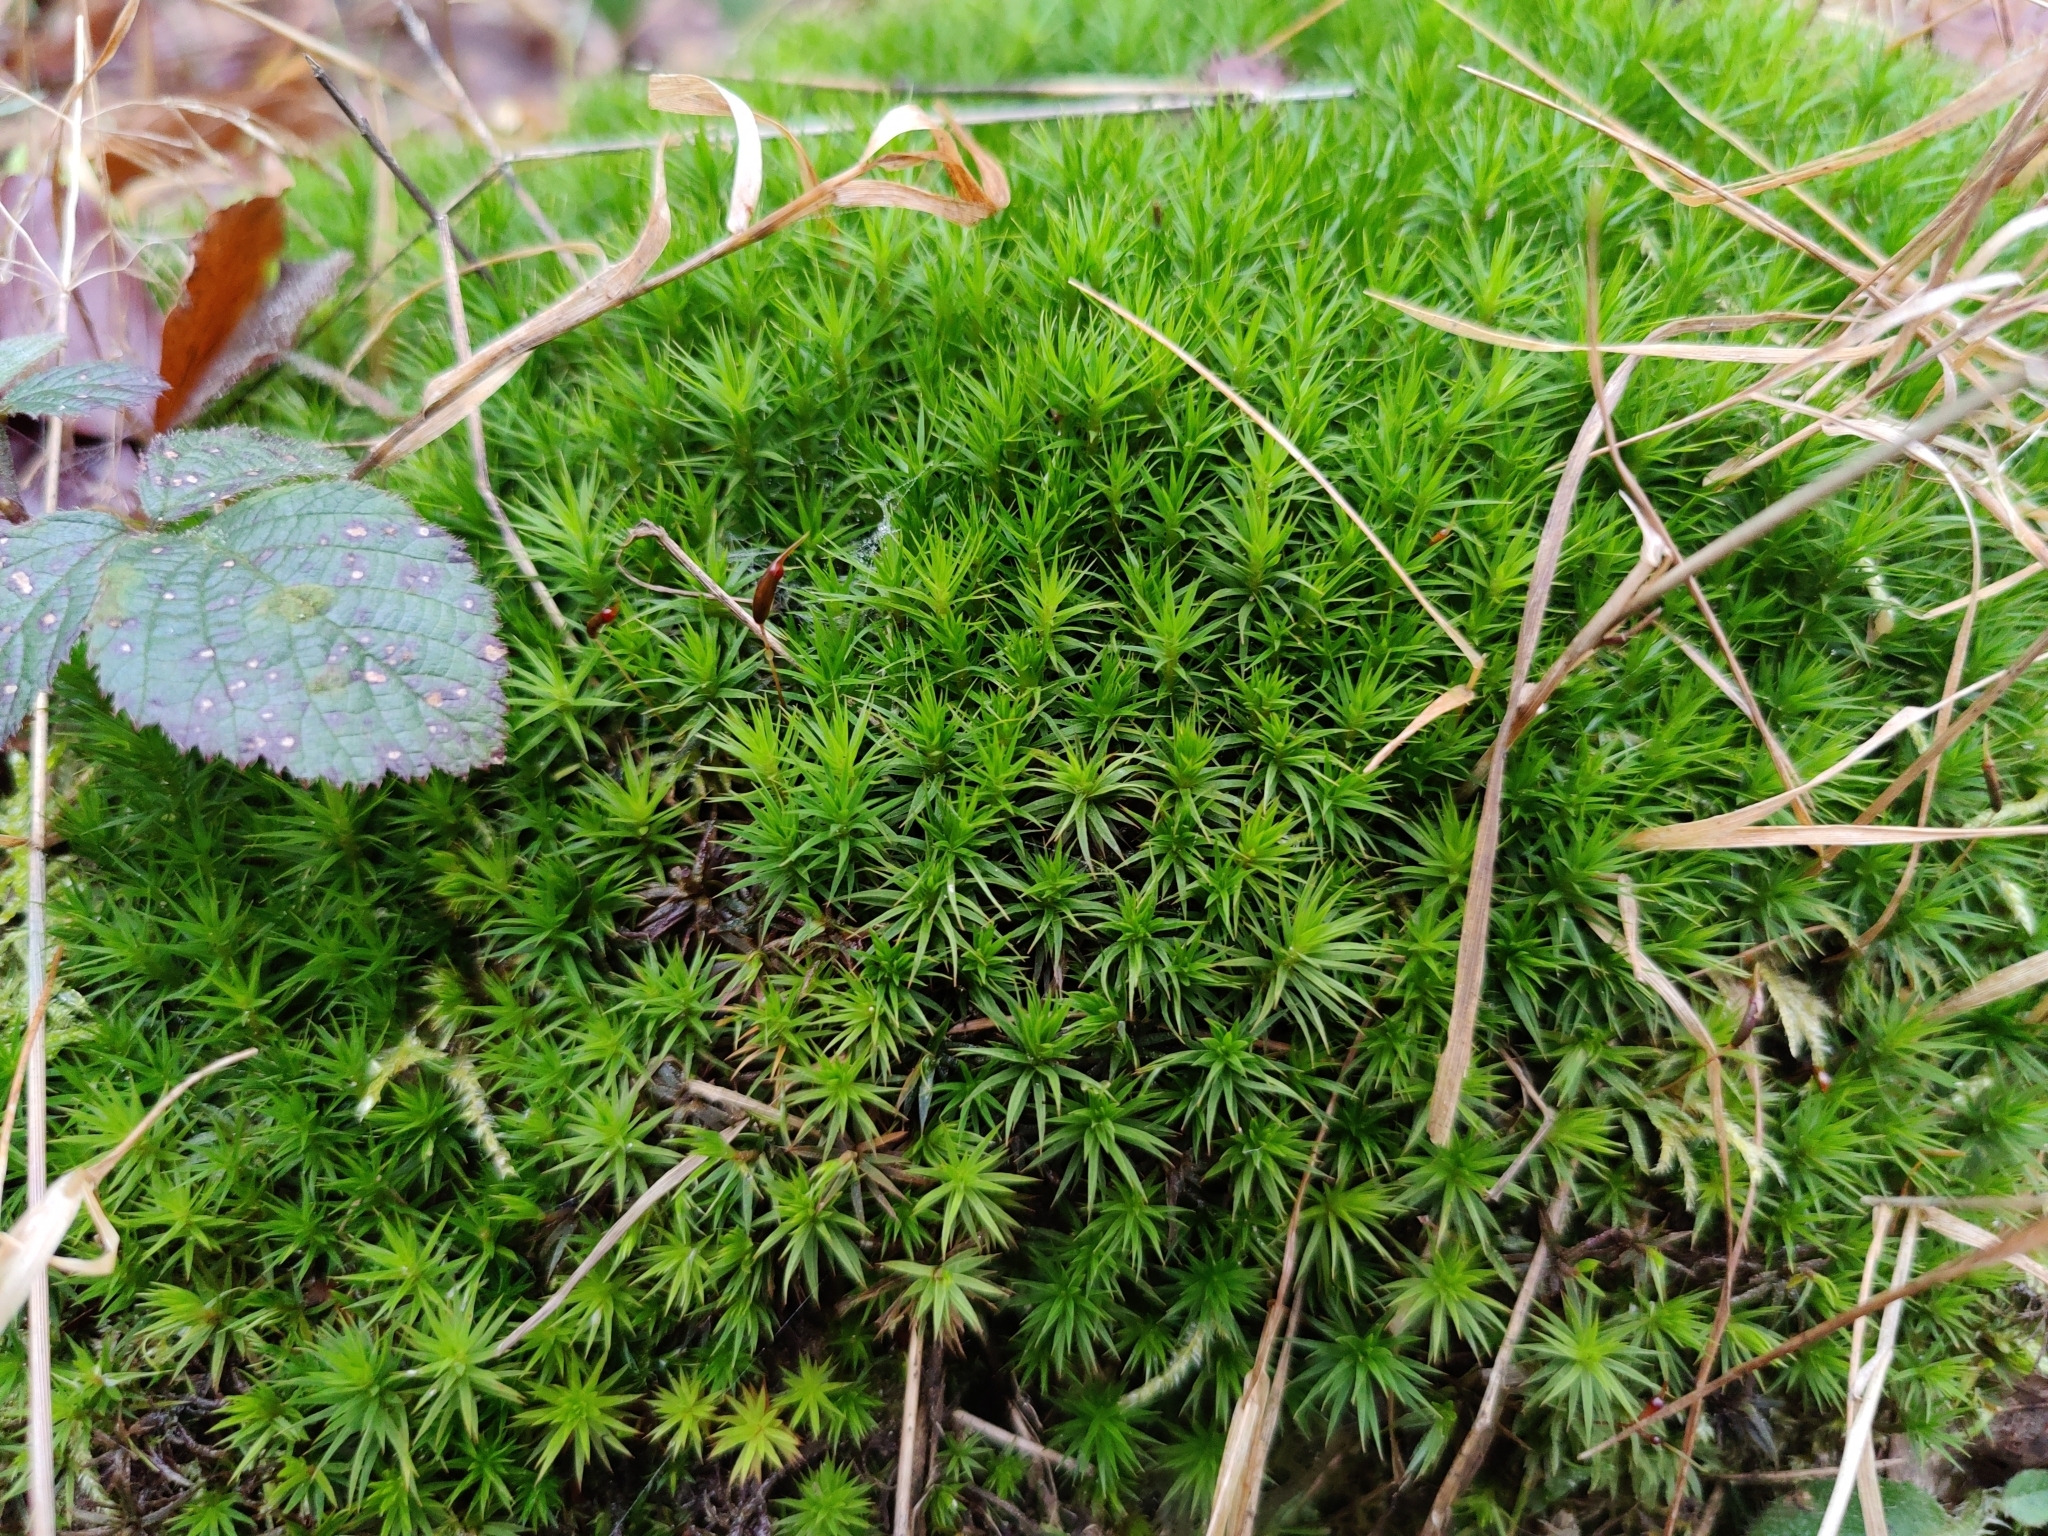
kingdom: Plantae
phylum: Bryophyta
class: Polytrichopsida
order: Polytrichales
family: Polytrichaceae
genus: Polytrichum
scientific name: Polytrichum formosum
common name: Bank haircap moss
